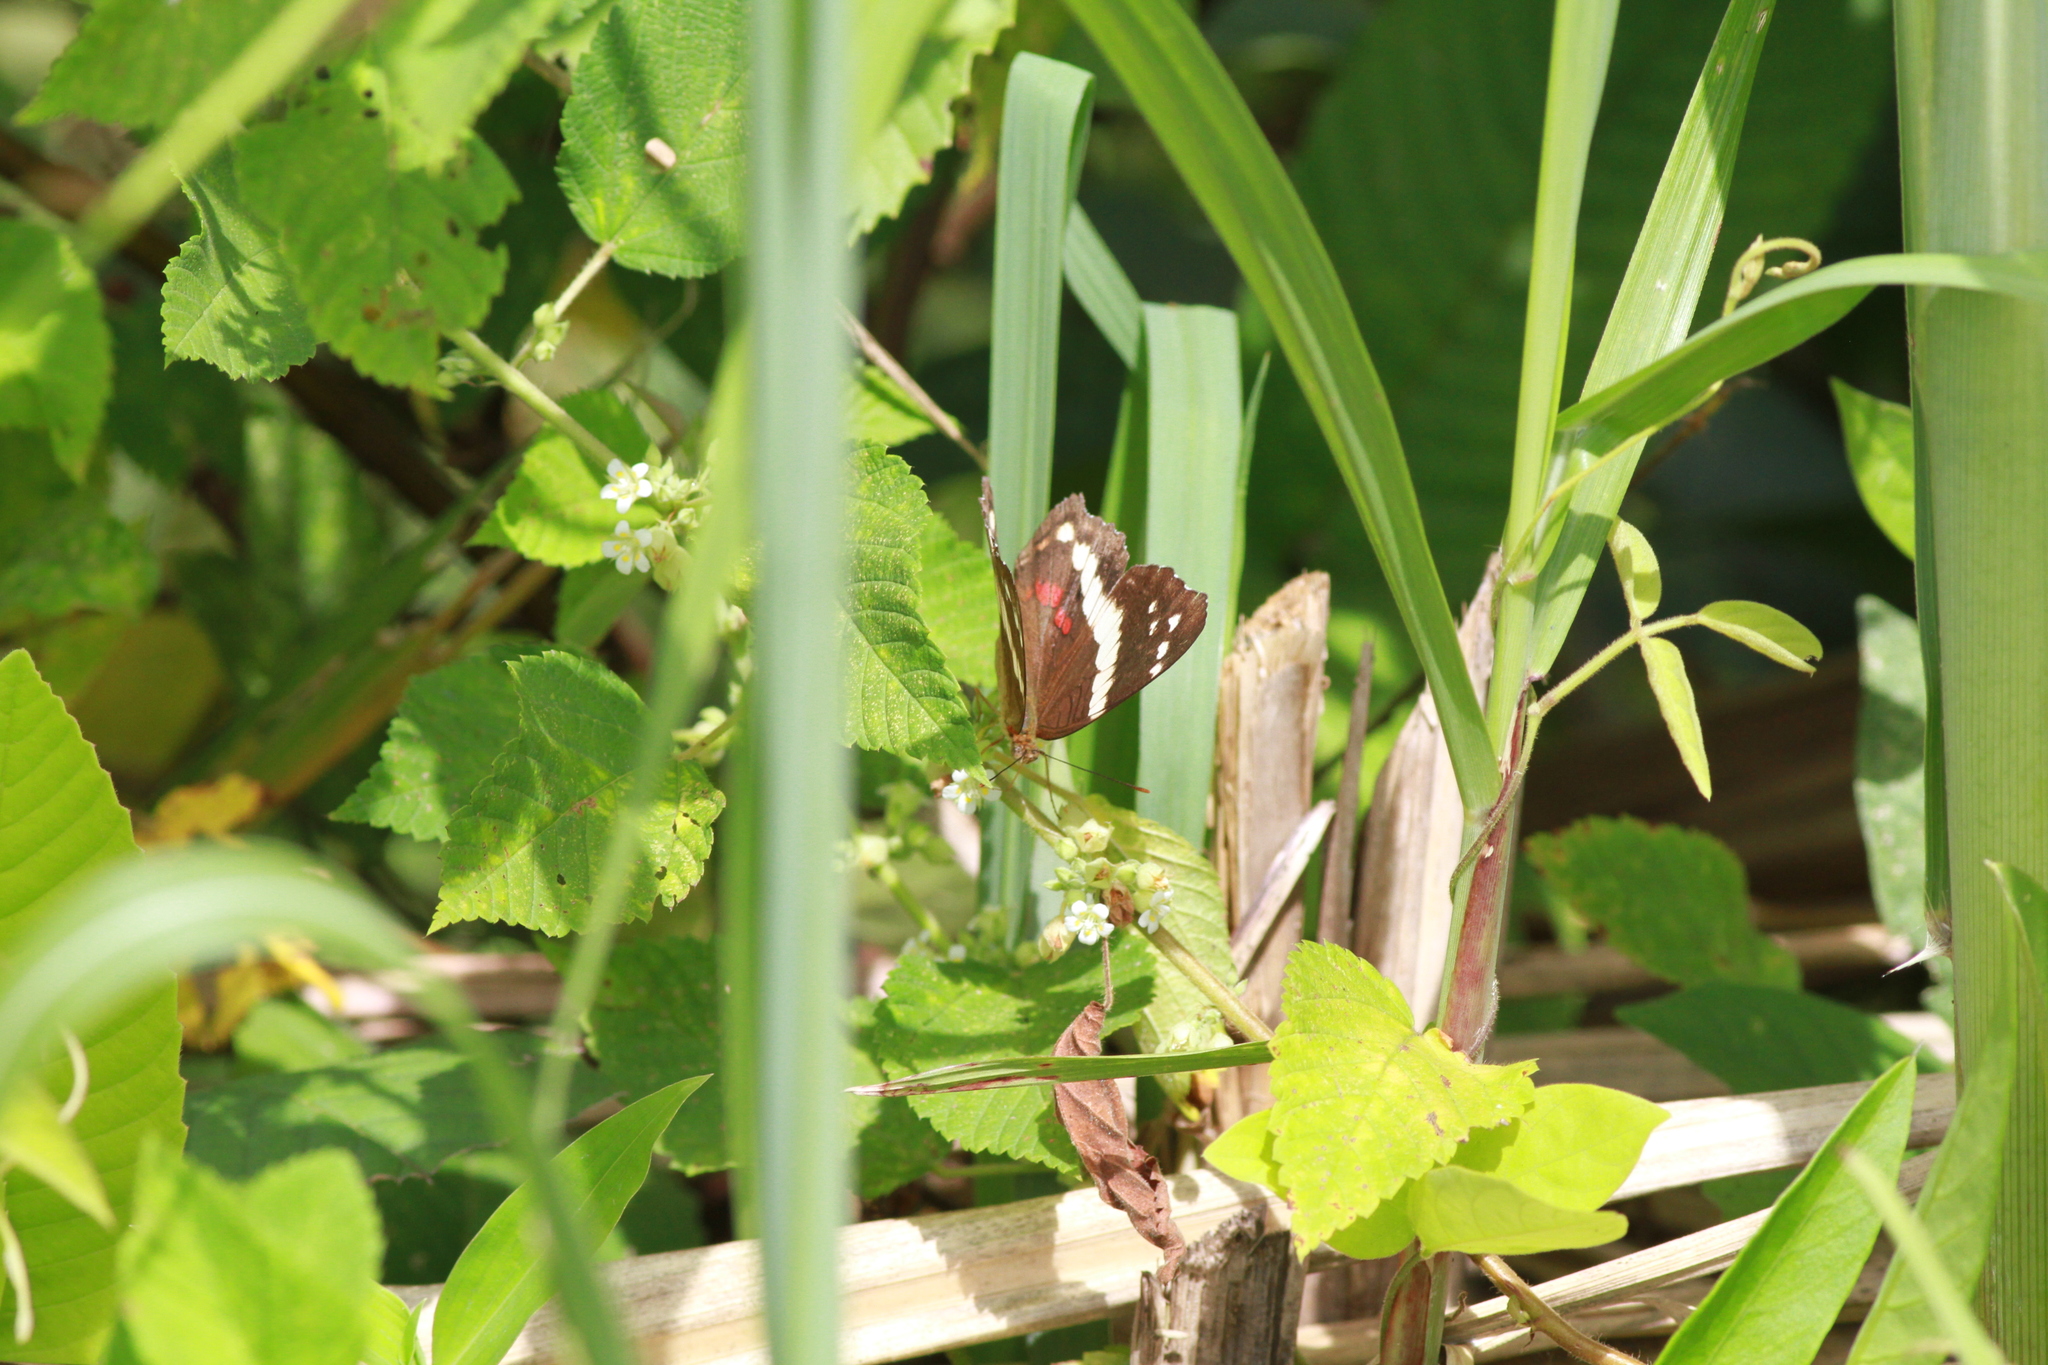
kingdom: Animalia
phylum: Arthropoda
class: Insecta
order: Lepidoptera
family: Nymphalidae
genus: Anartia
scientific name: Anartia fatima
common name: Banded peacock
